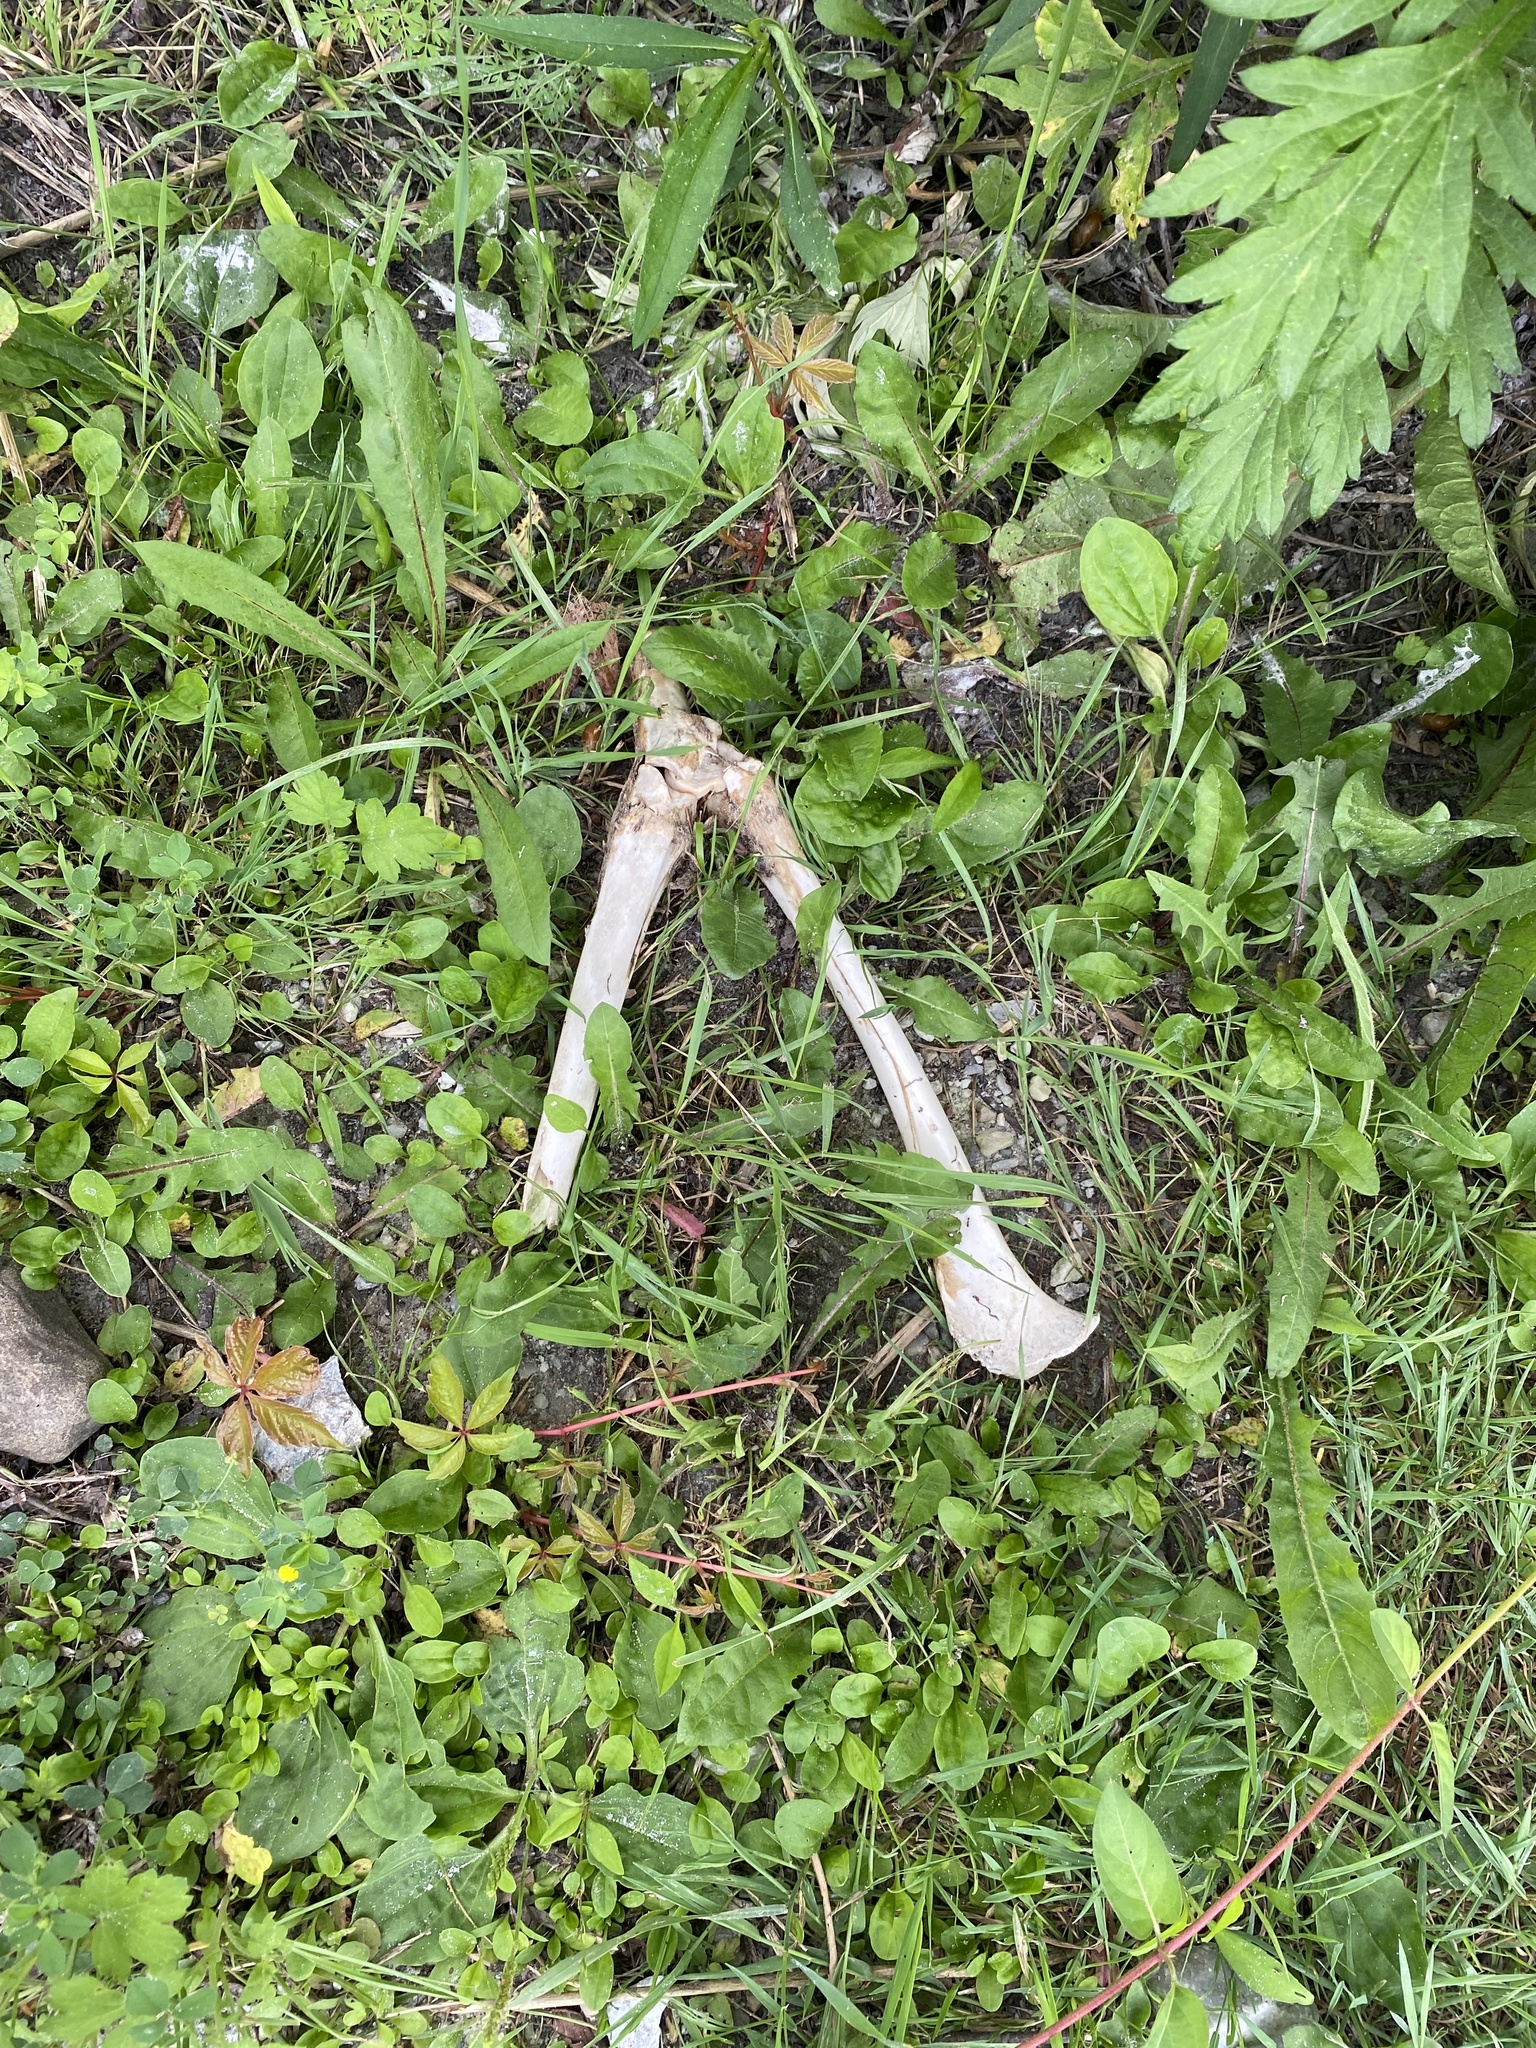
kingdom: Animalia
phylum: Chordata
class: Mammalia
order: Artiodactyla
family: Cervidae
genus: Odocoileus
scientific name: Odocoileus virginianus
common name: White-tailed deer
